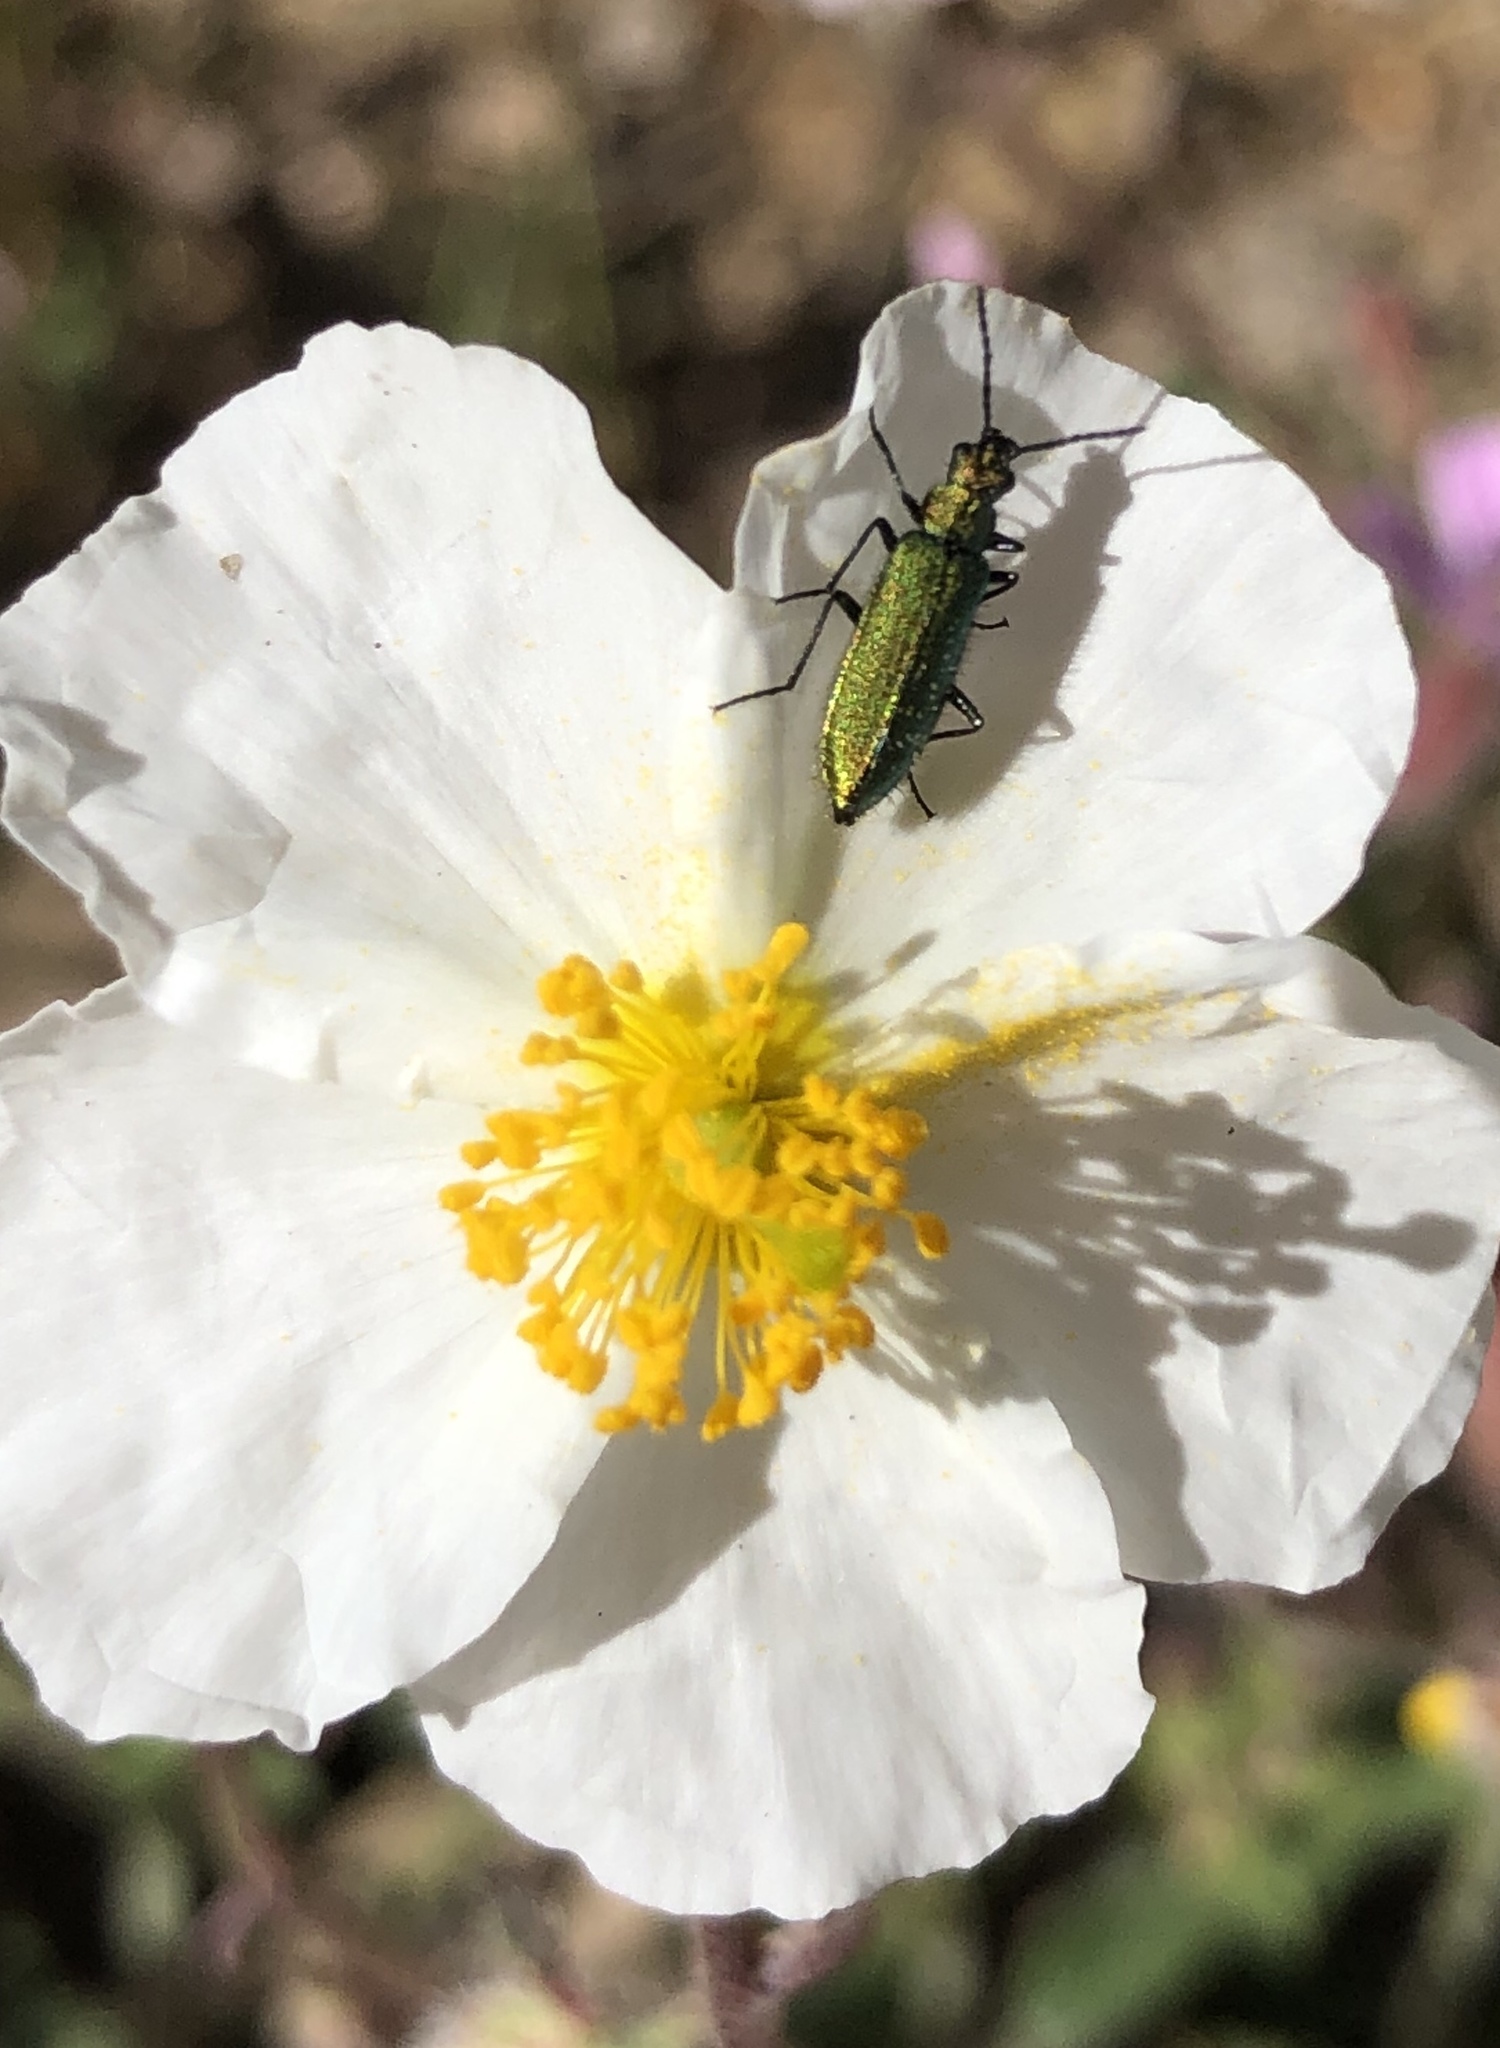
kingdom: Animalia
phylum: Arthropoda
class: Insecta
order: Coleoptera
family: Stenotrachelidae
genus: Stenotrachelus
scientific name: Stenotrachelus aeneus
